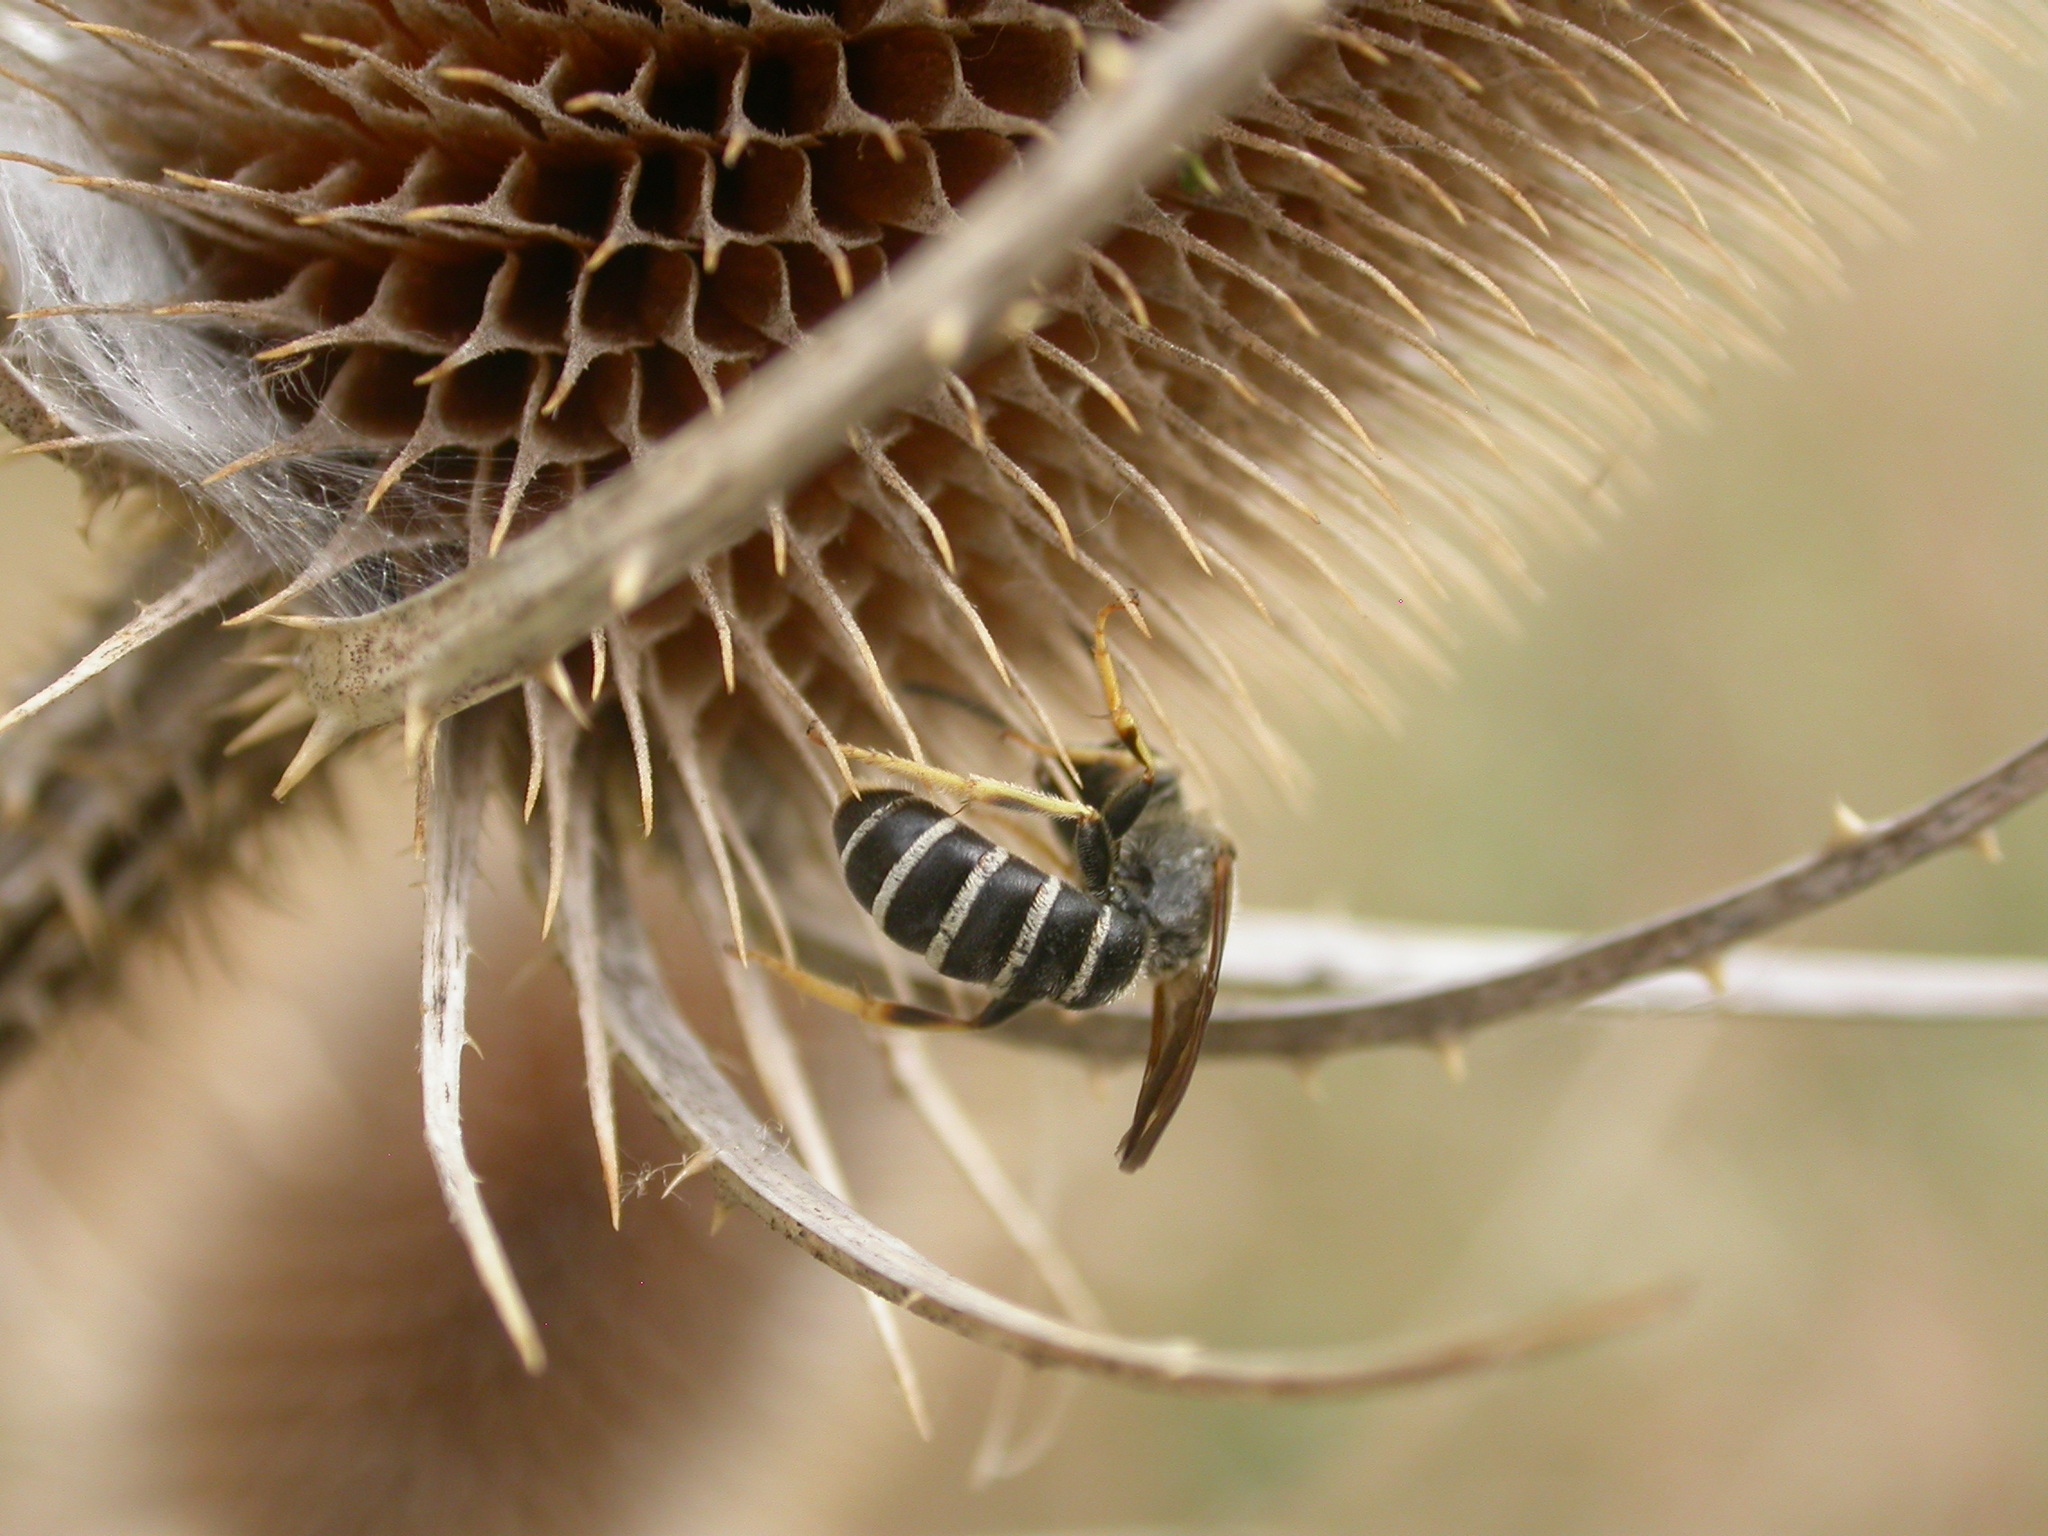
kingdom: Animalia
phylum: Arthropoda
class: Insecta
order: Hymenoptera
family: Halictidae
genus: Halictus
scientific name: Halictus farinosus
